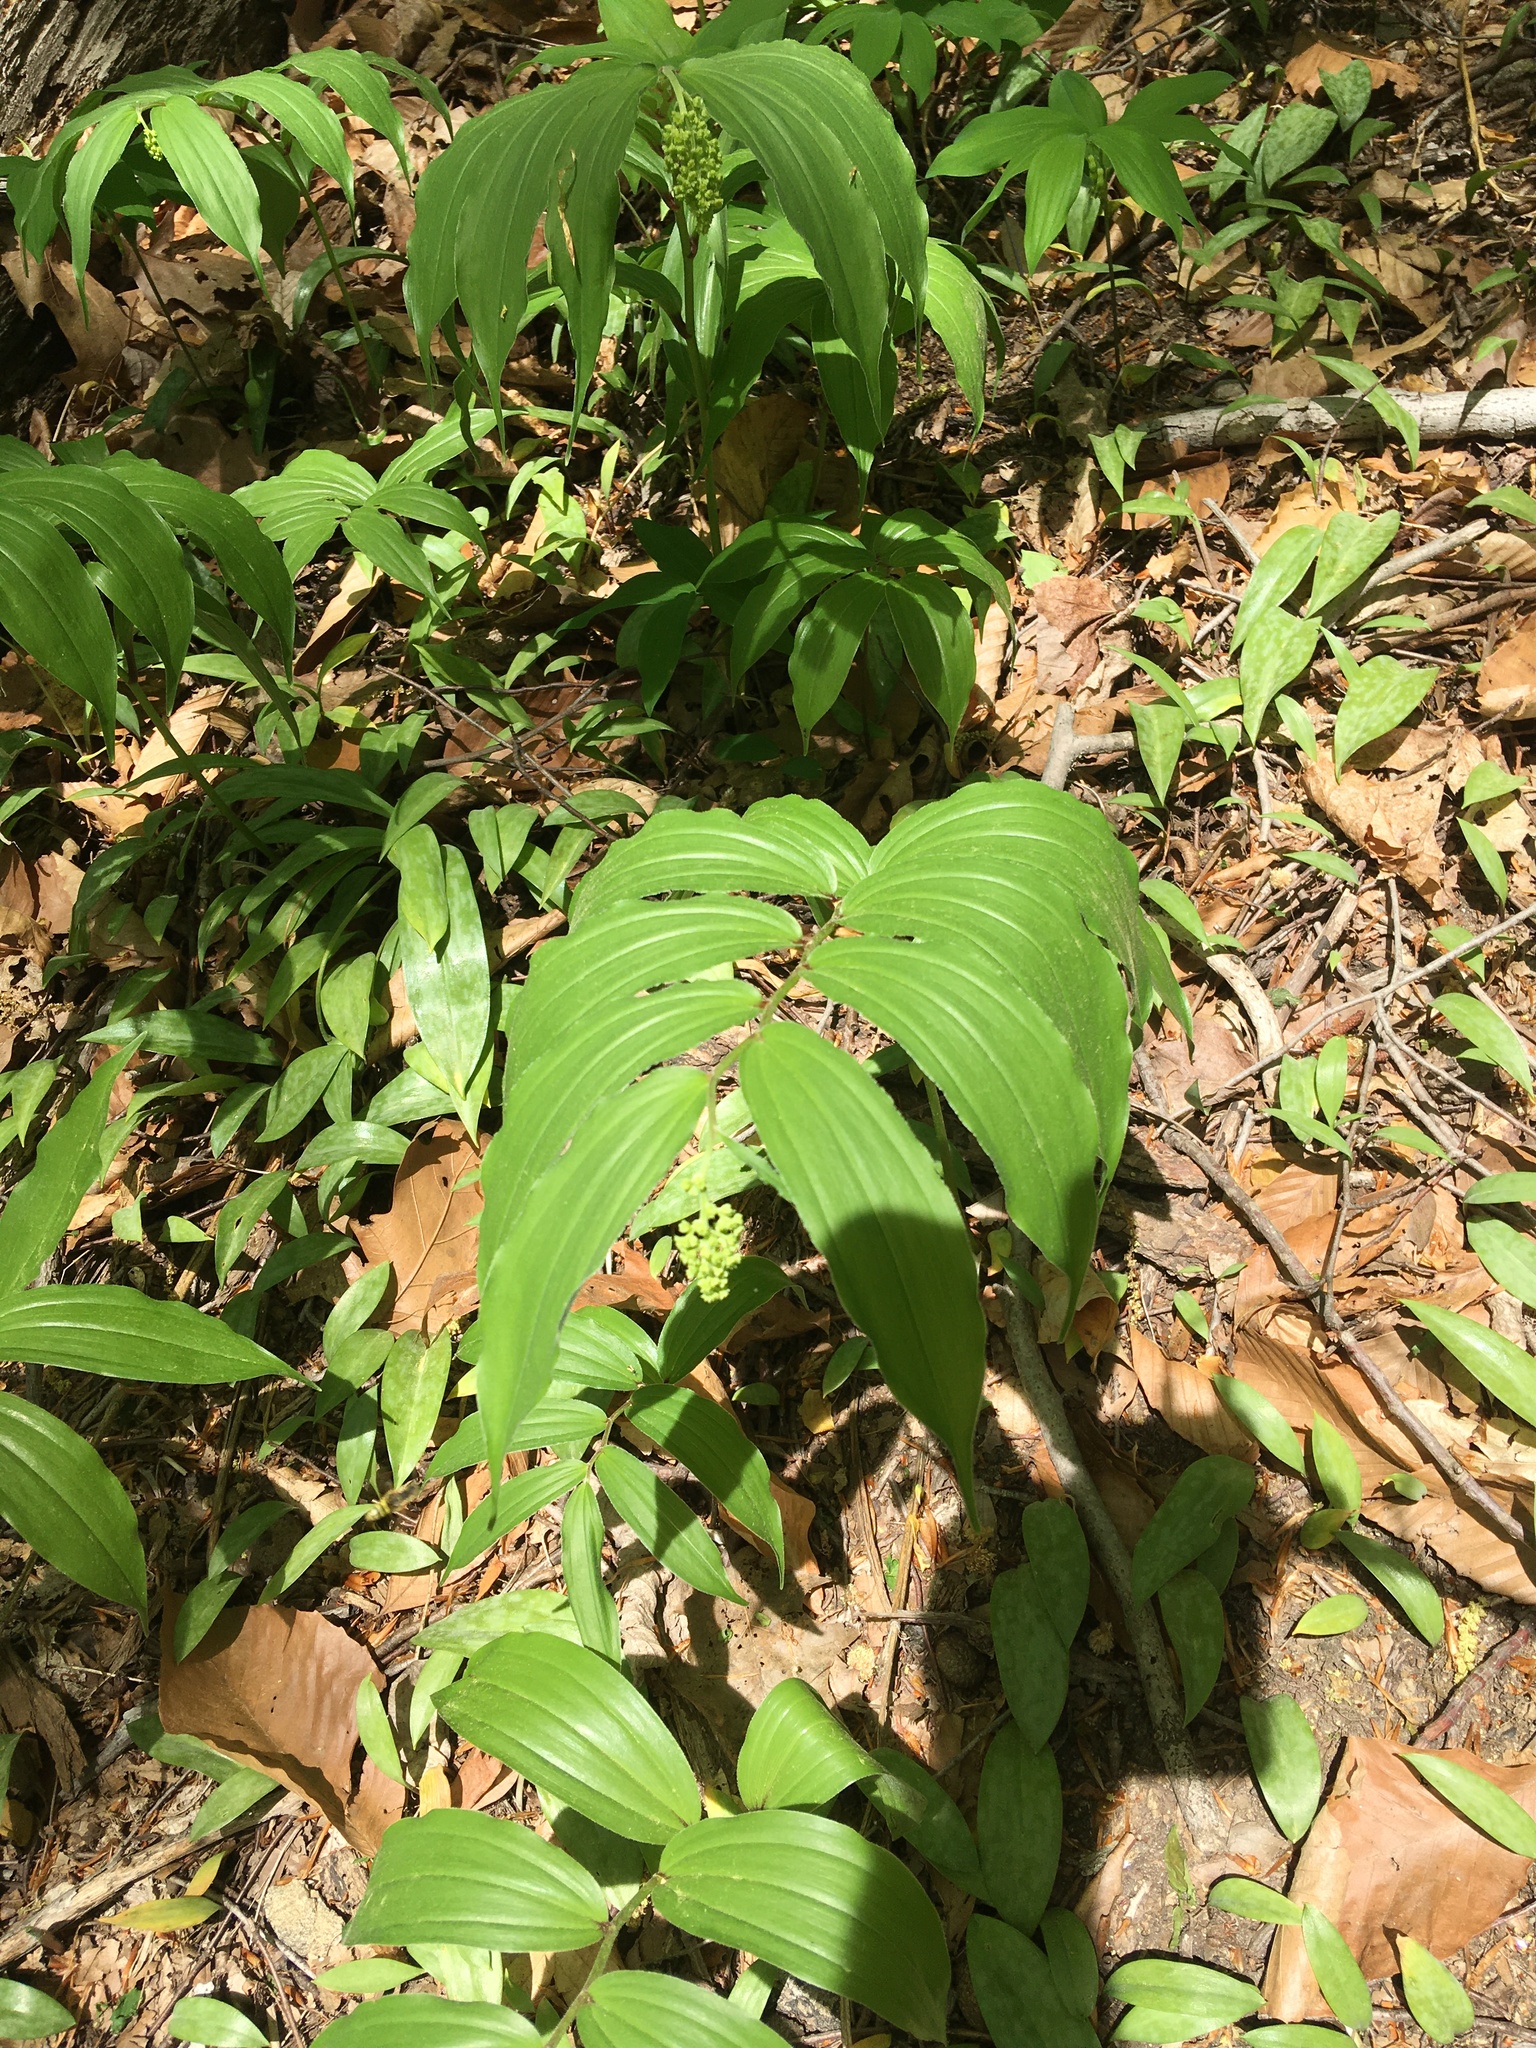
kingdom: Plantae
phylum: Tracheophyta
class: Liliopsida
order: Asparagales
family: Asparagaceae
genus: Maianthemum
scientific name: Maianthemum racemosum
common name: False spikenard
